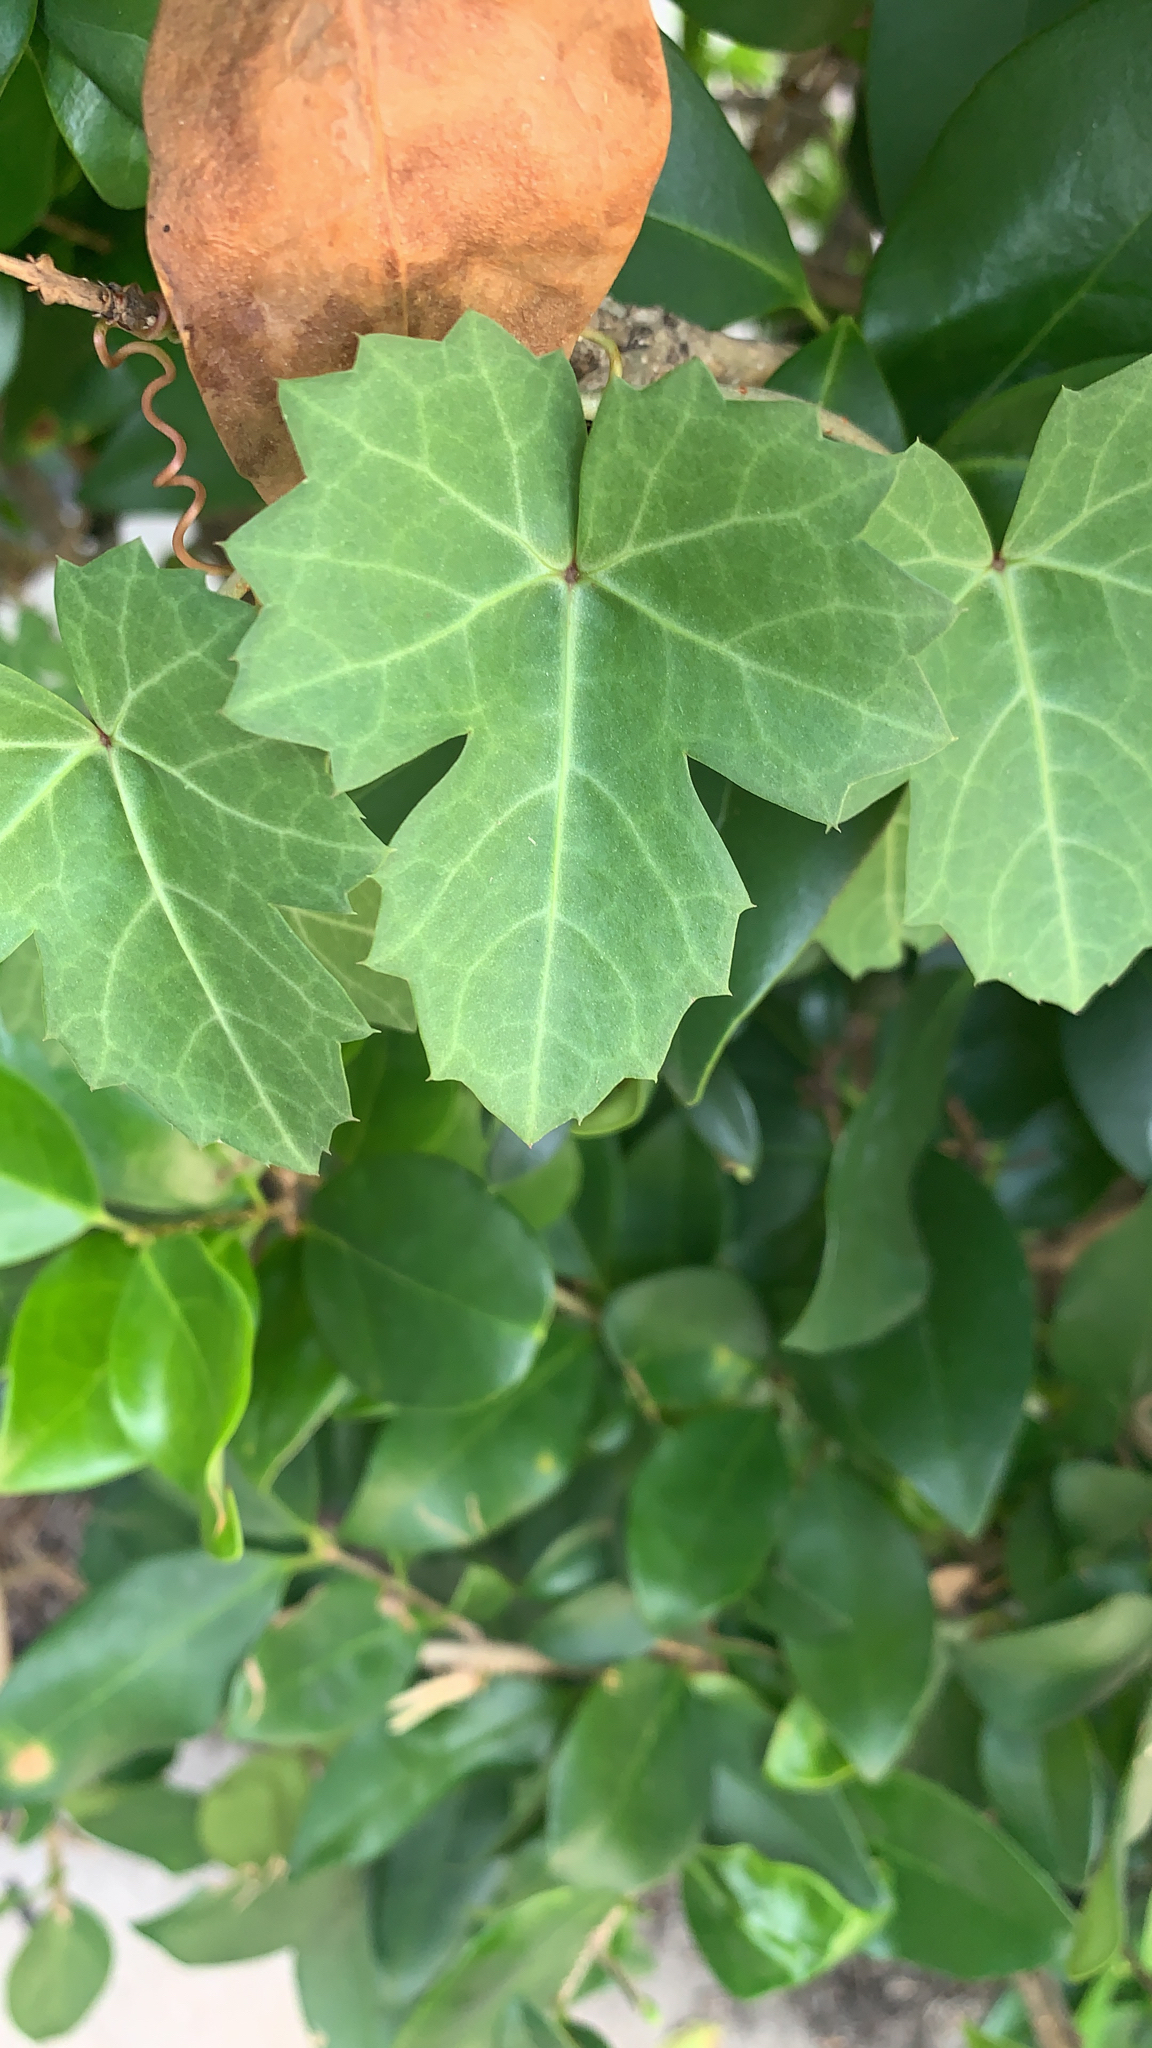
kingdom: Plantae
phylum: Tracheophyta
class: Magnoliopsida
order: Vitales
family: Vitaceae
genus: Cissus
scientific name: Cissus trifoliata
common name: Vine-sorrel
